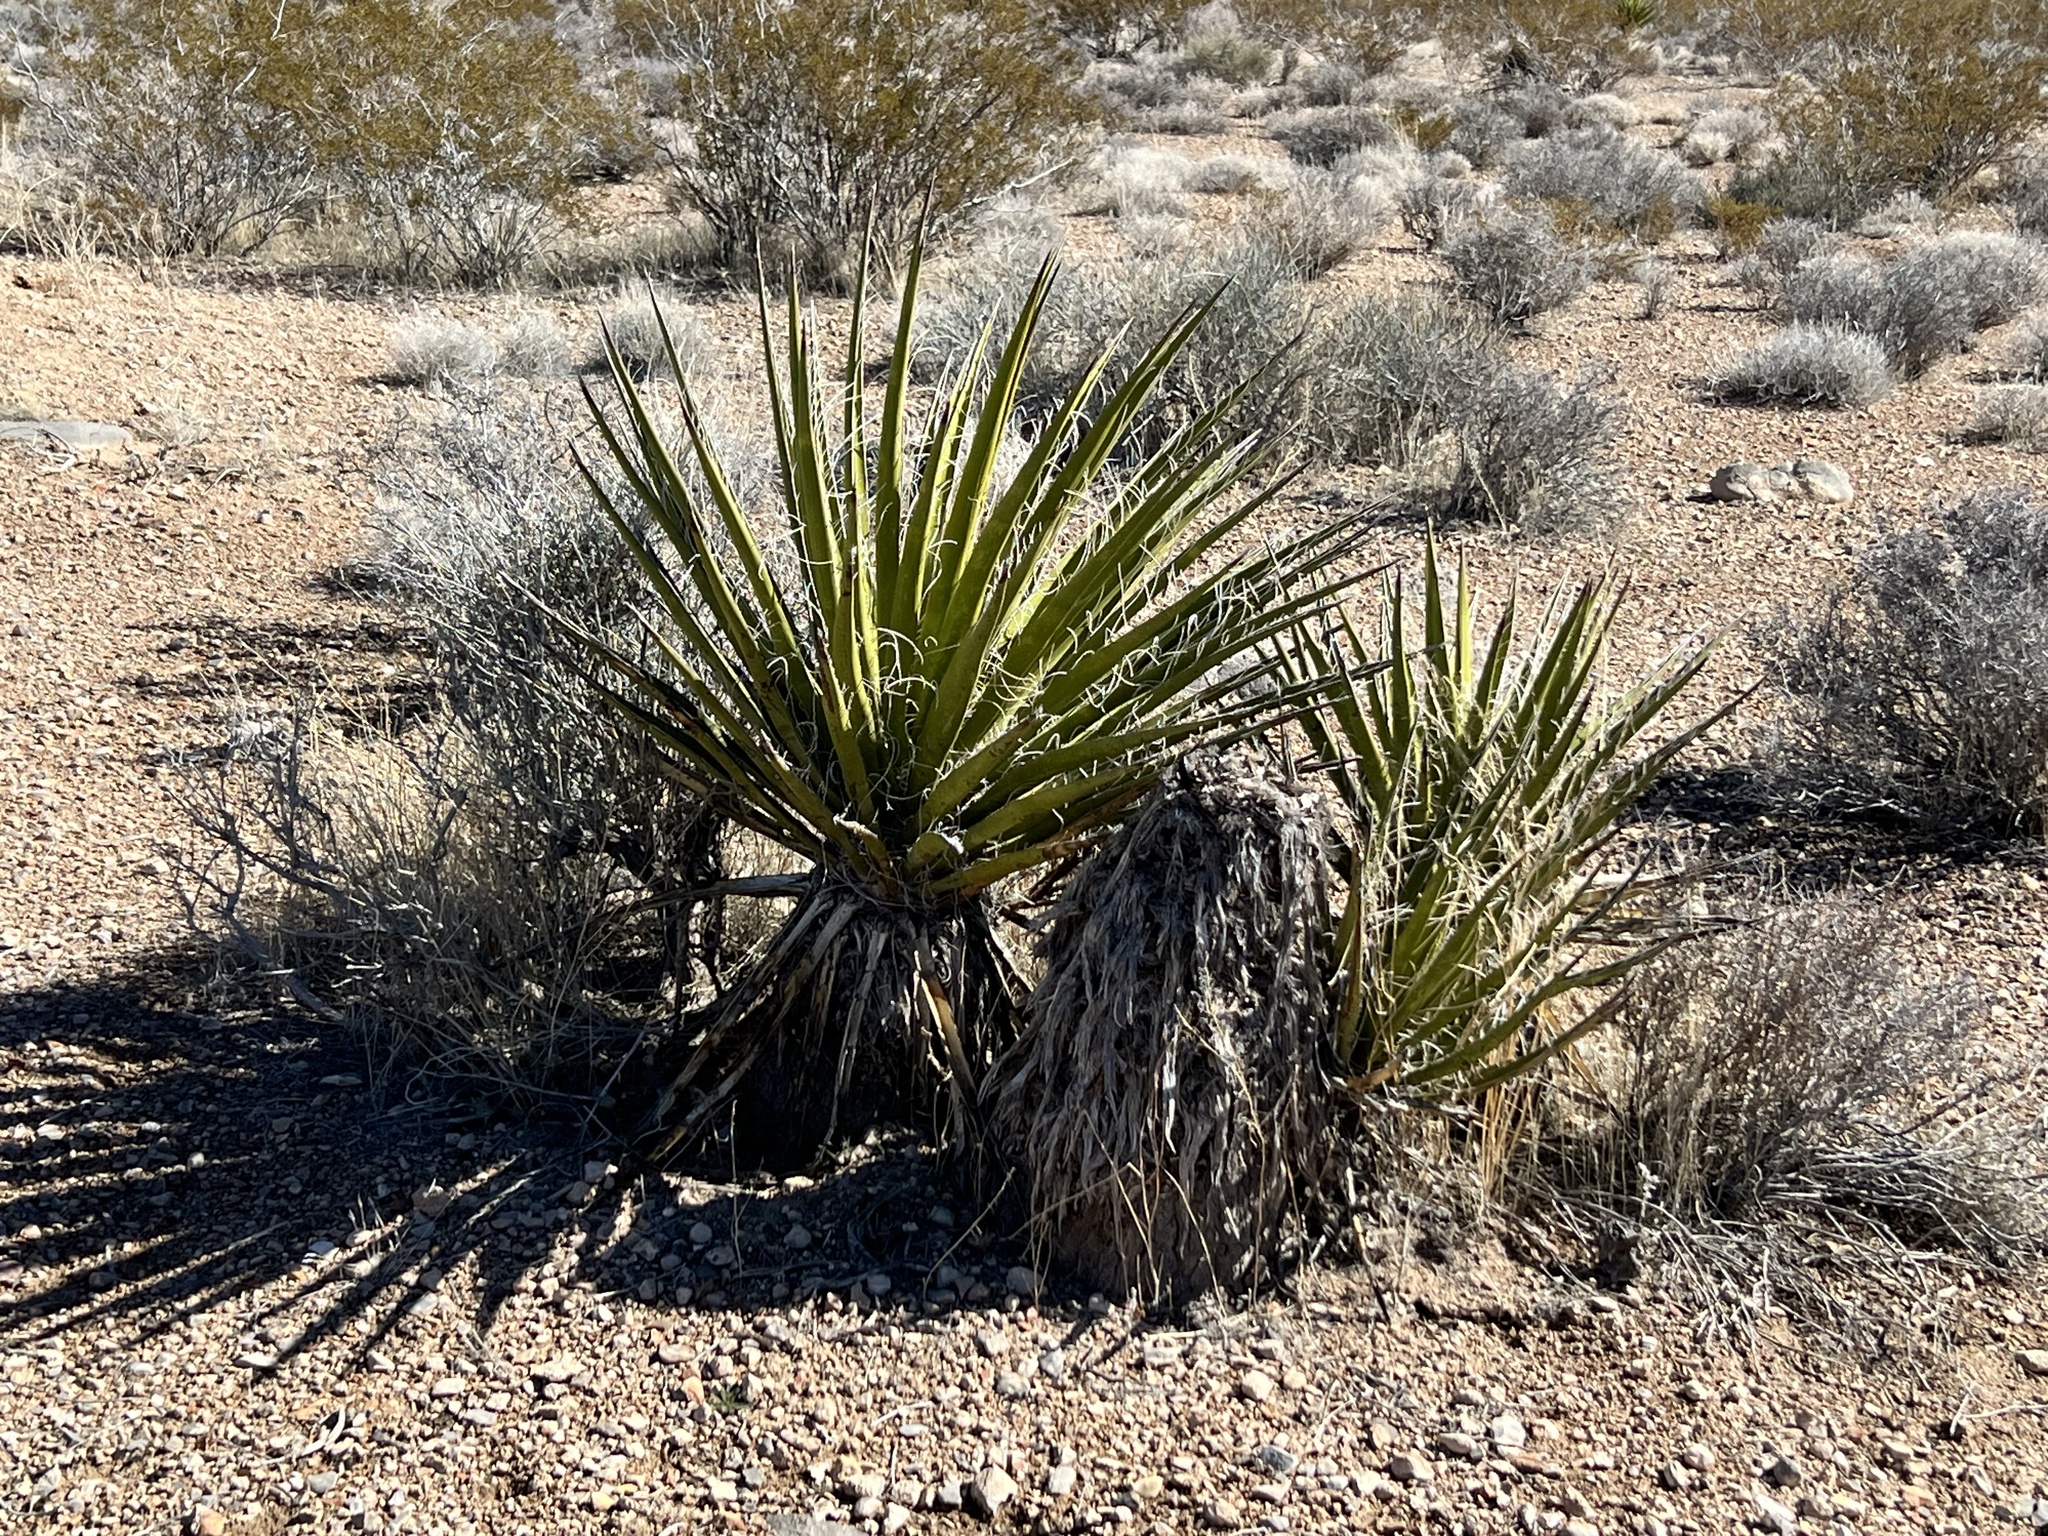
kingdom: Plantae
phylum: Tracheophyta
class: Liliopsida
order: Asparagales
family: Asparagaceae
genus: Yucca
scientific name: Yucca schidigera
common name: Mojave yucca
